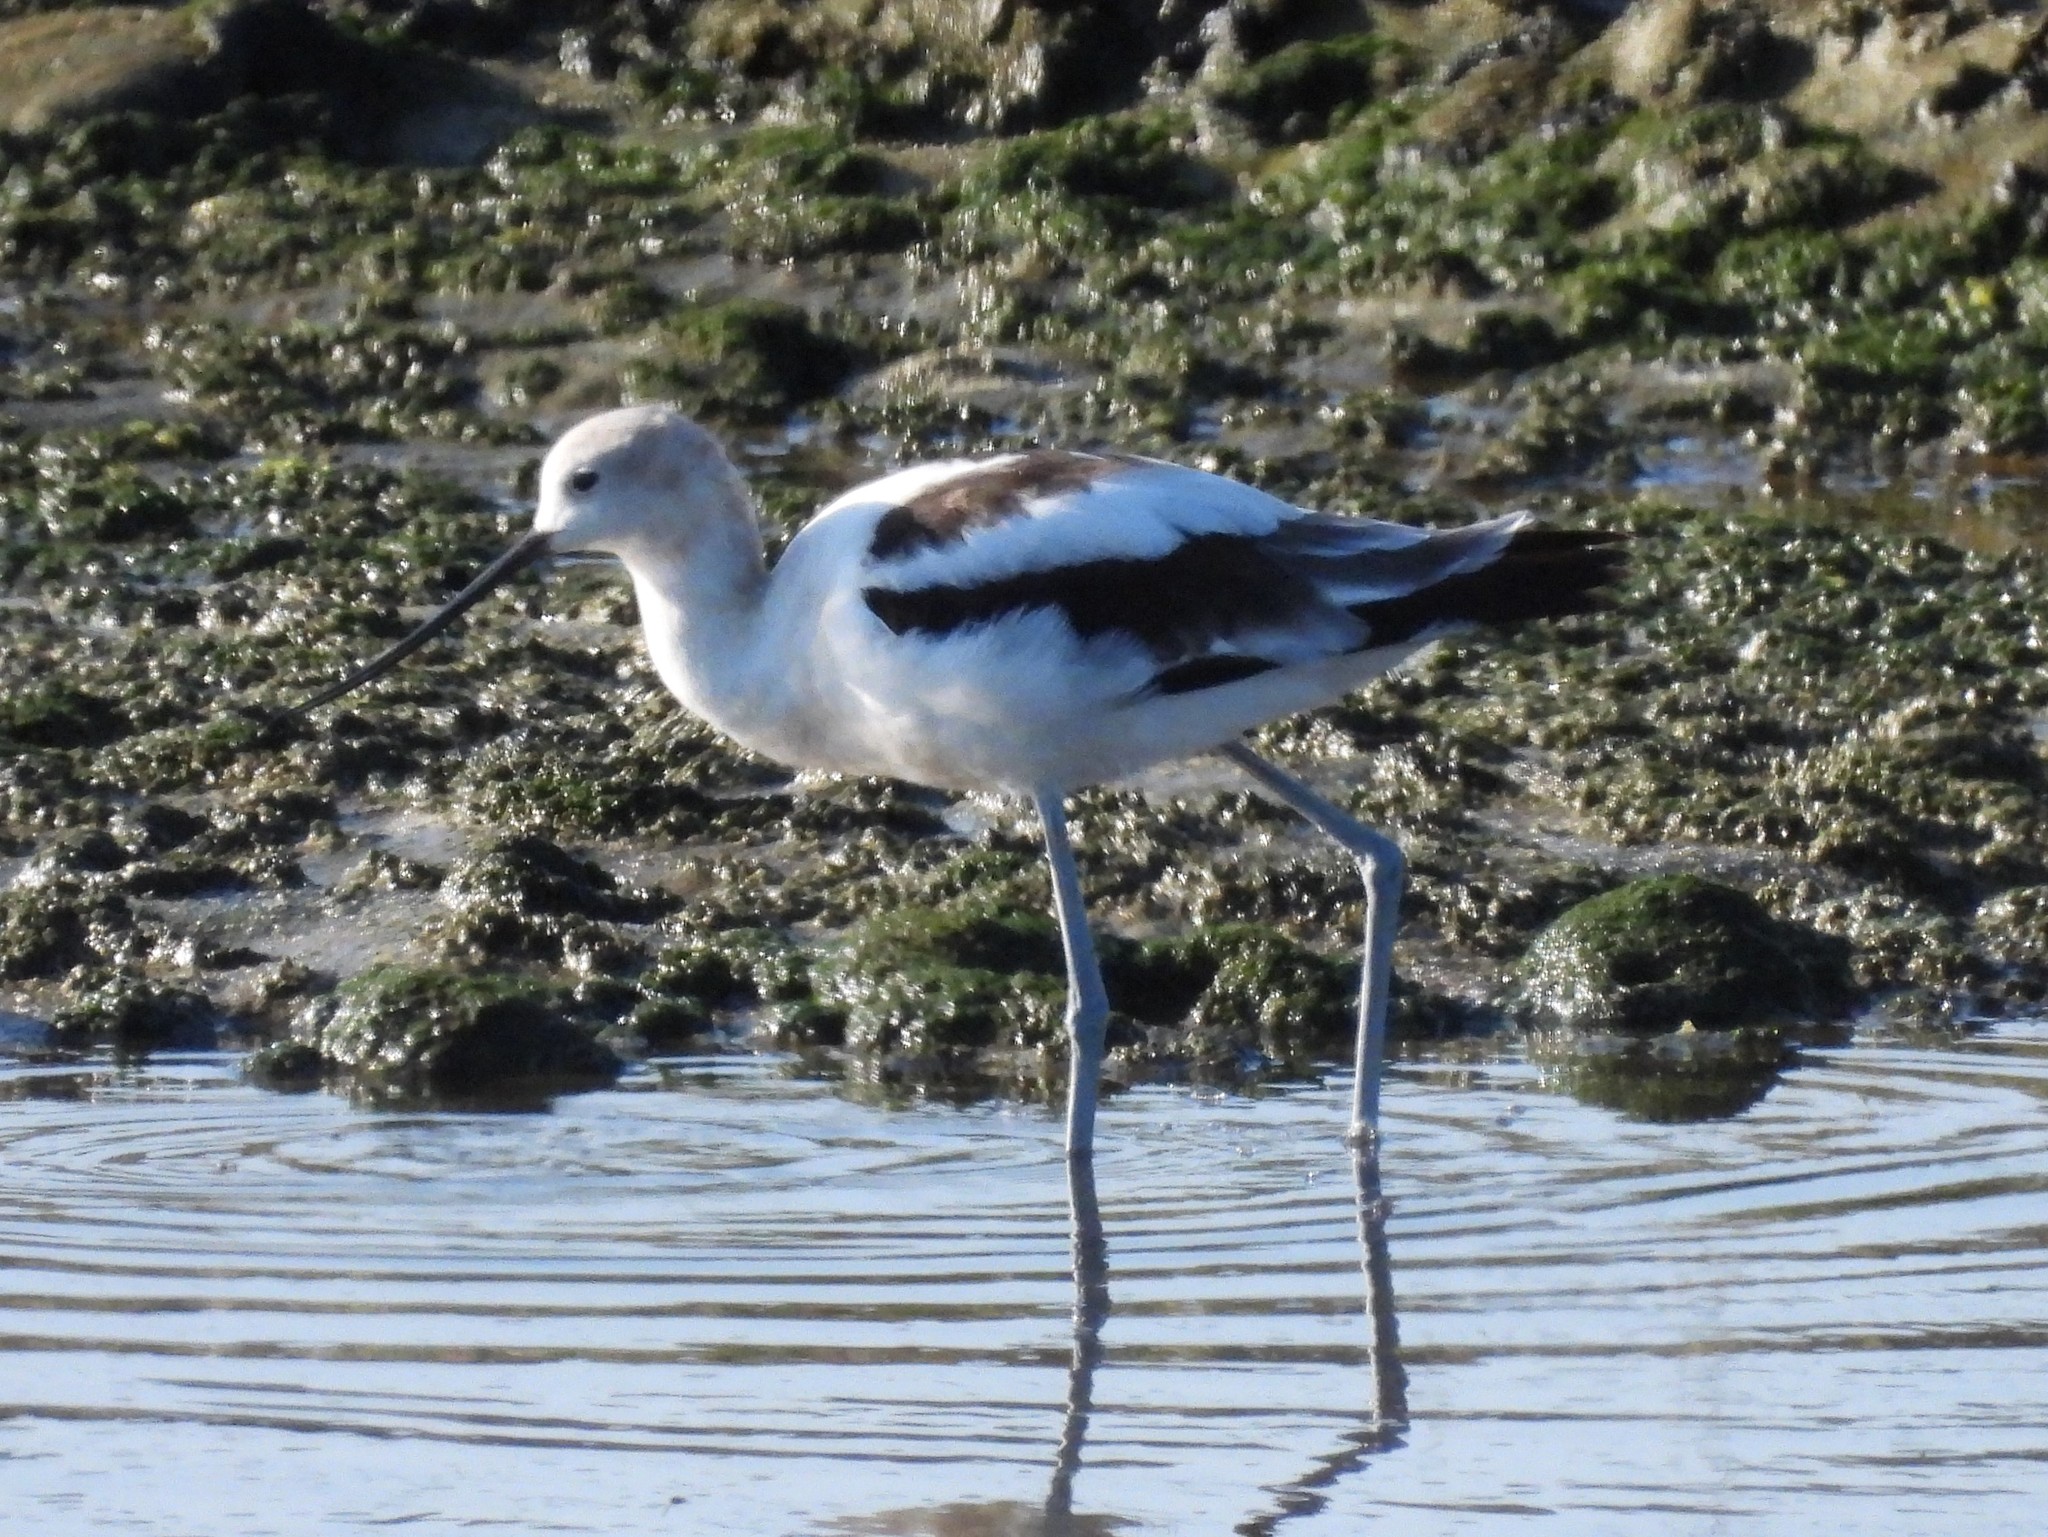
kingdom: Animalia
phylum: Chordata
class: Aves
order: Charadriiformes
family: Recurvirostridae
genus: Recurvirostra
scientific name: Recurvirostra americana
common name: American avocet
